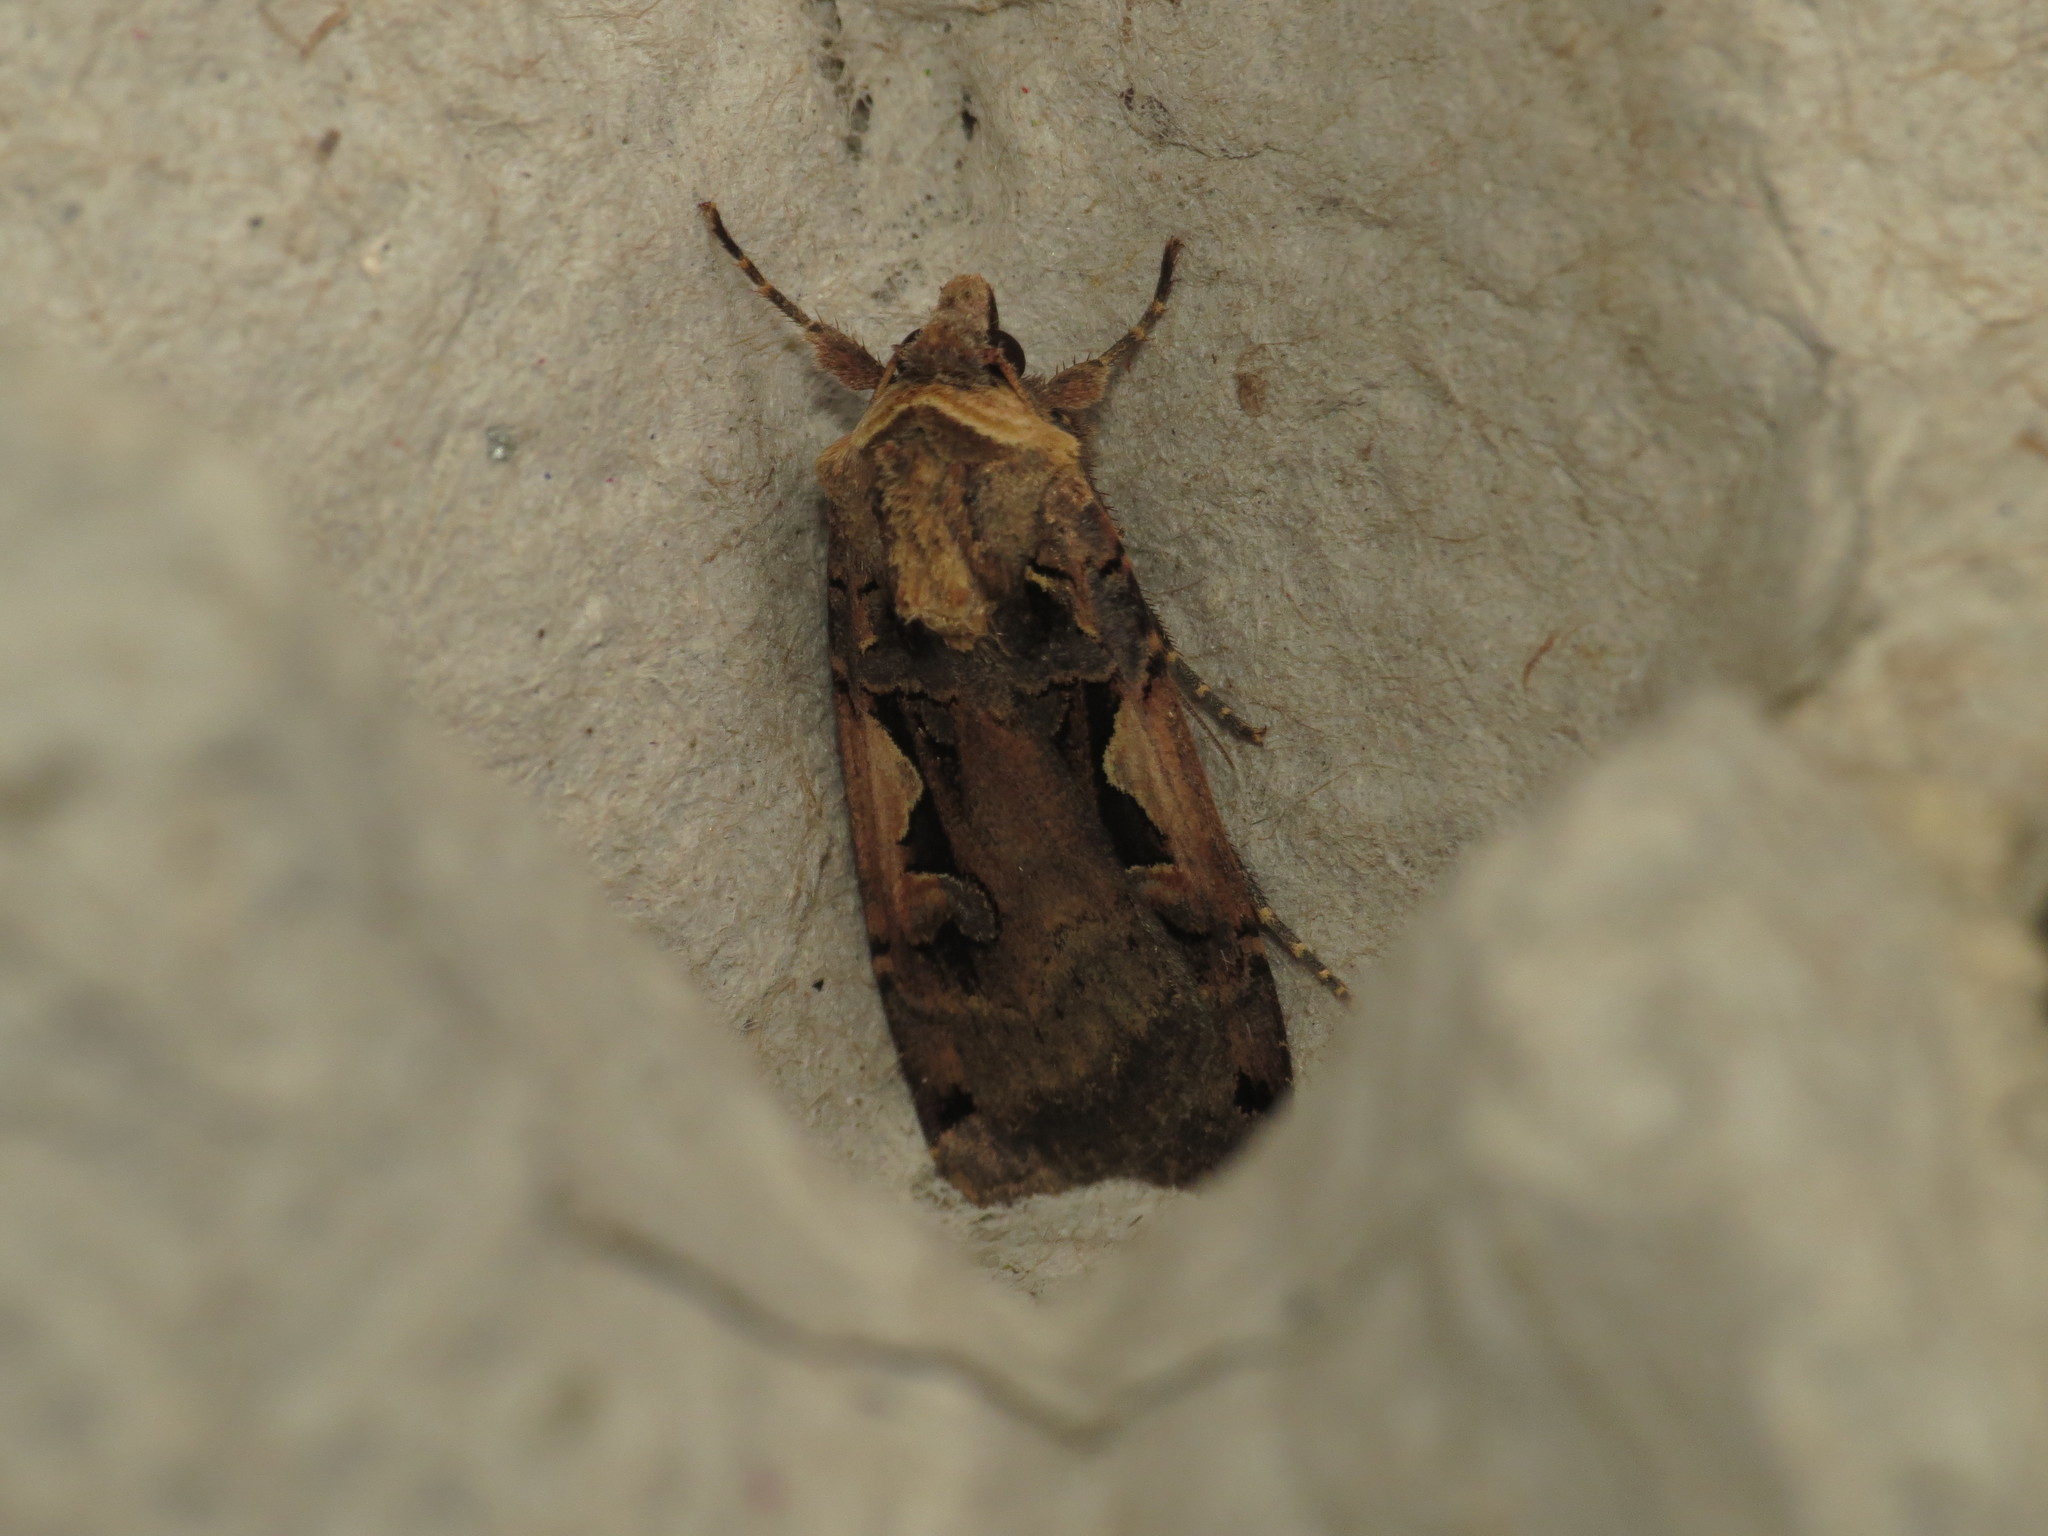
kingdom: Animalia
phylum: Arthropoda
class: Insecta
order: Lepidoptera
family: Noctuidae
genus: Xestia
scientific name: Xestia c-nigrum
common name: Setaceous hebrew character
